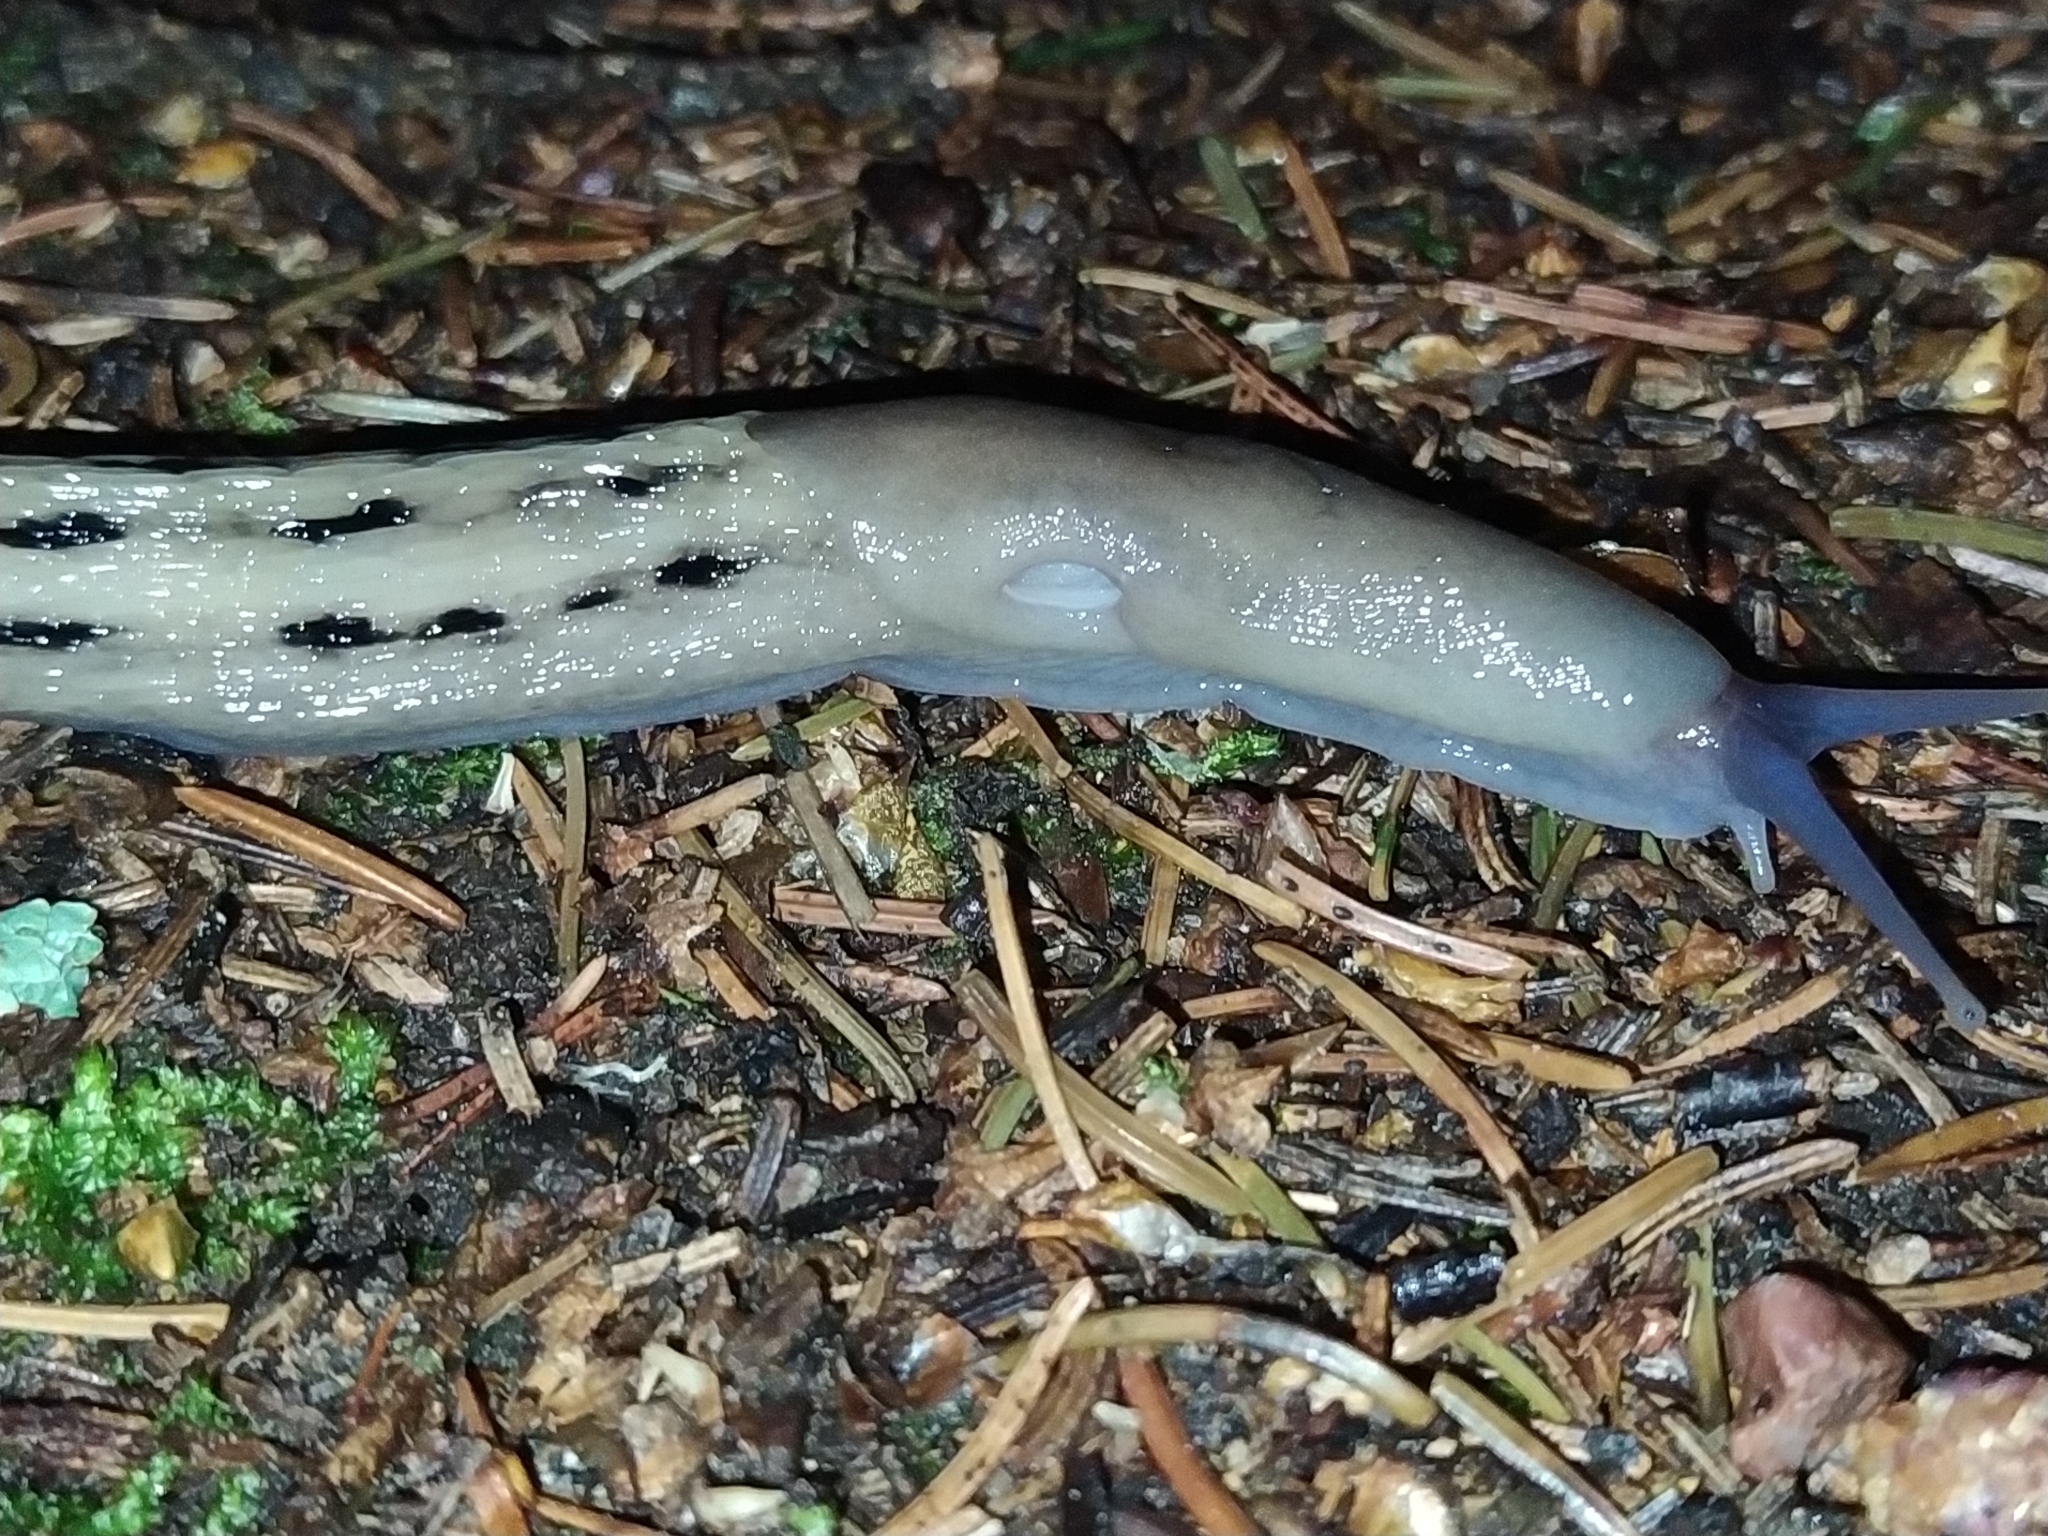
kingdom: Animalia
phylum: Mollusca
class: Gastropoda
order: Stylommatophora
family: Limacidae
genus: Limax
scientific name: Limax cinereoniger
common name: Ash-black slug
